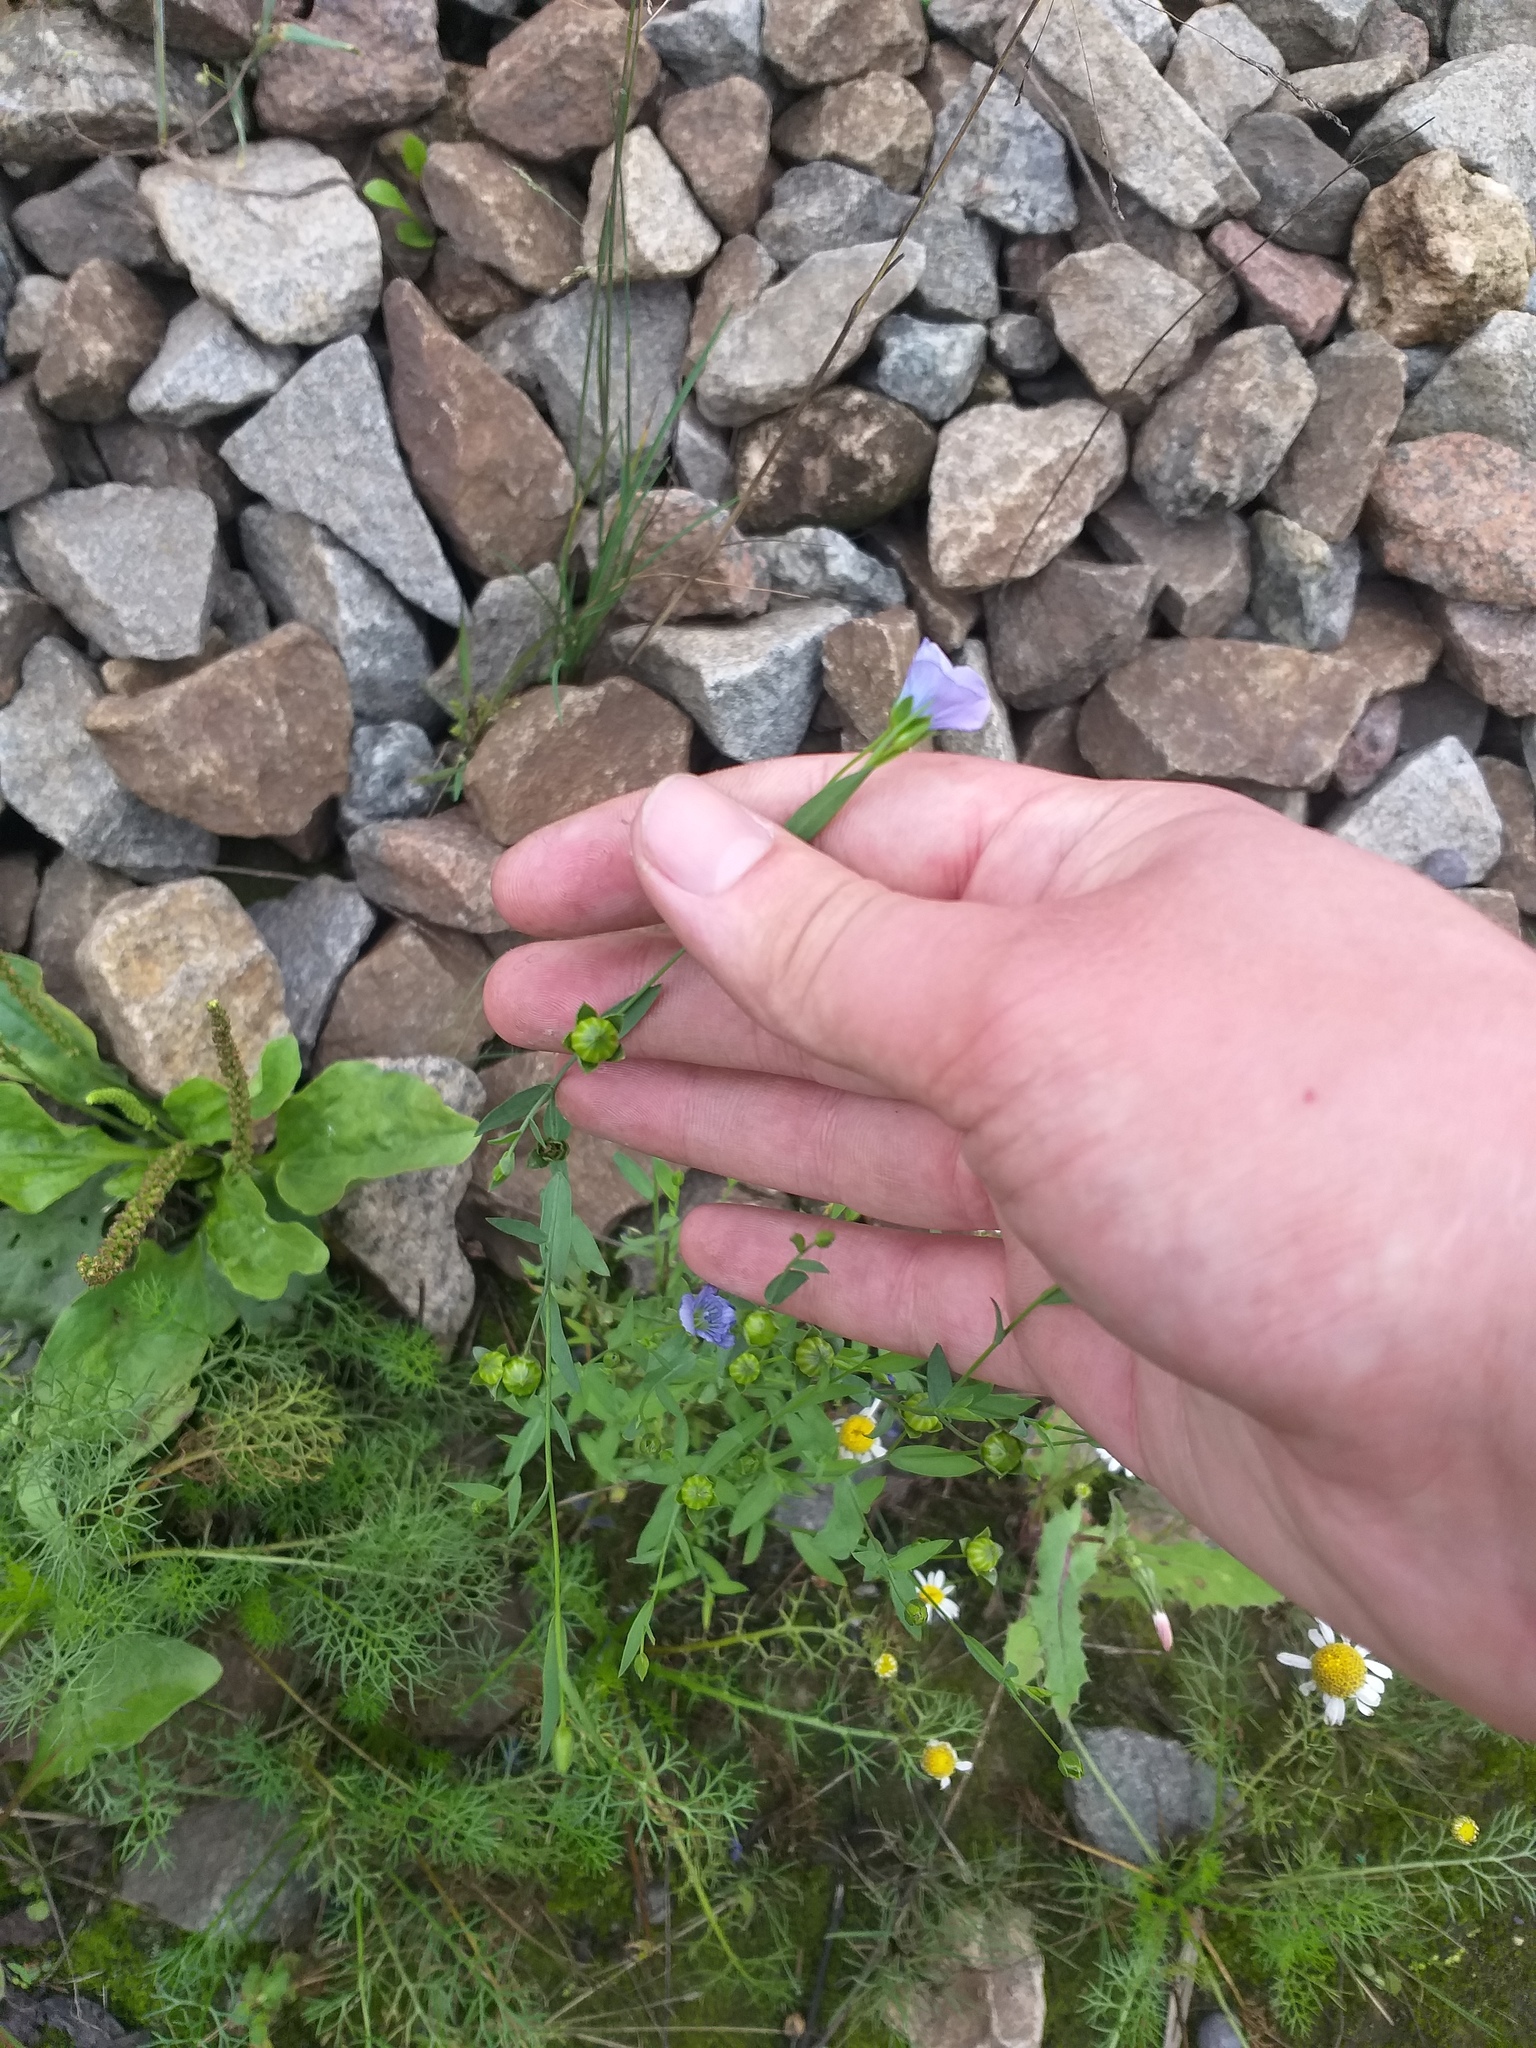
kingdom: Plantae
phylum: Tracheophyta
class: Magnoliopsida
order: Malpighiales
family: Linaceae
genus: Linum
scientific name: Linum usitatissimum
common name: Flax
